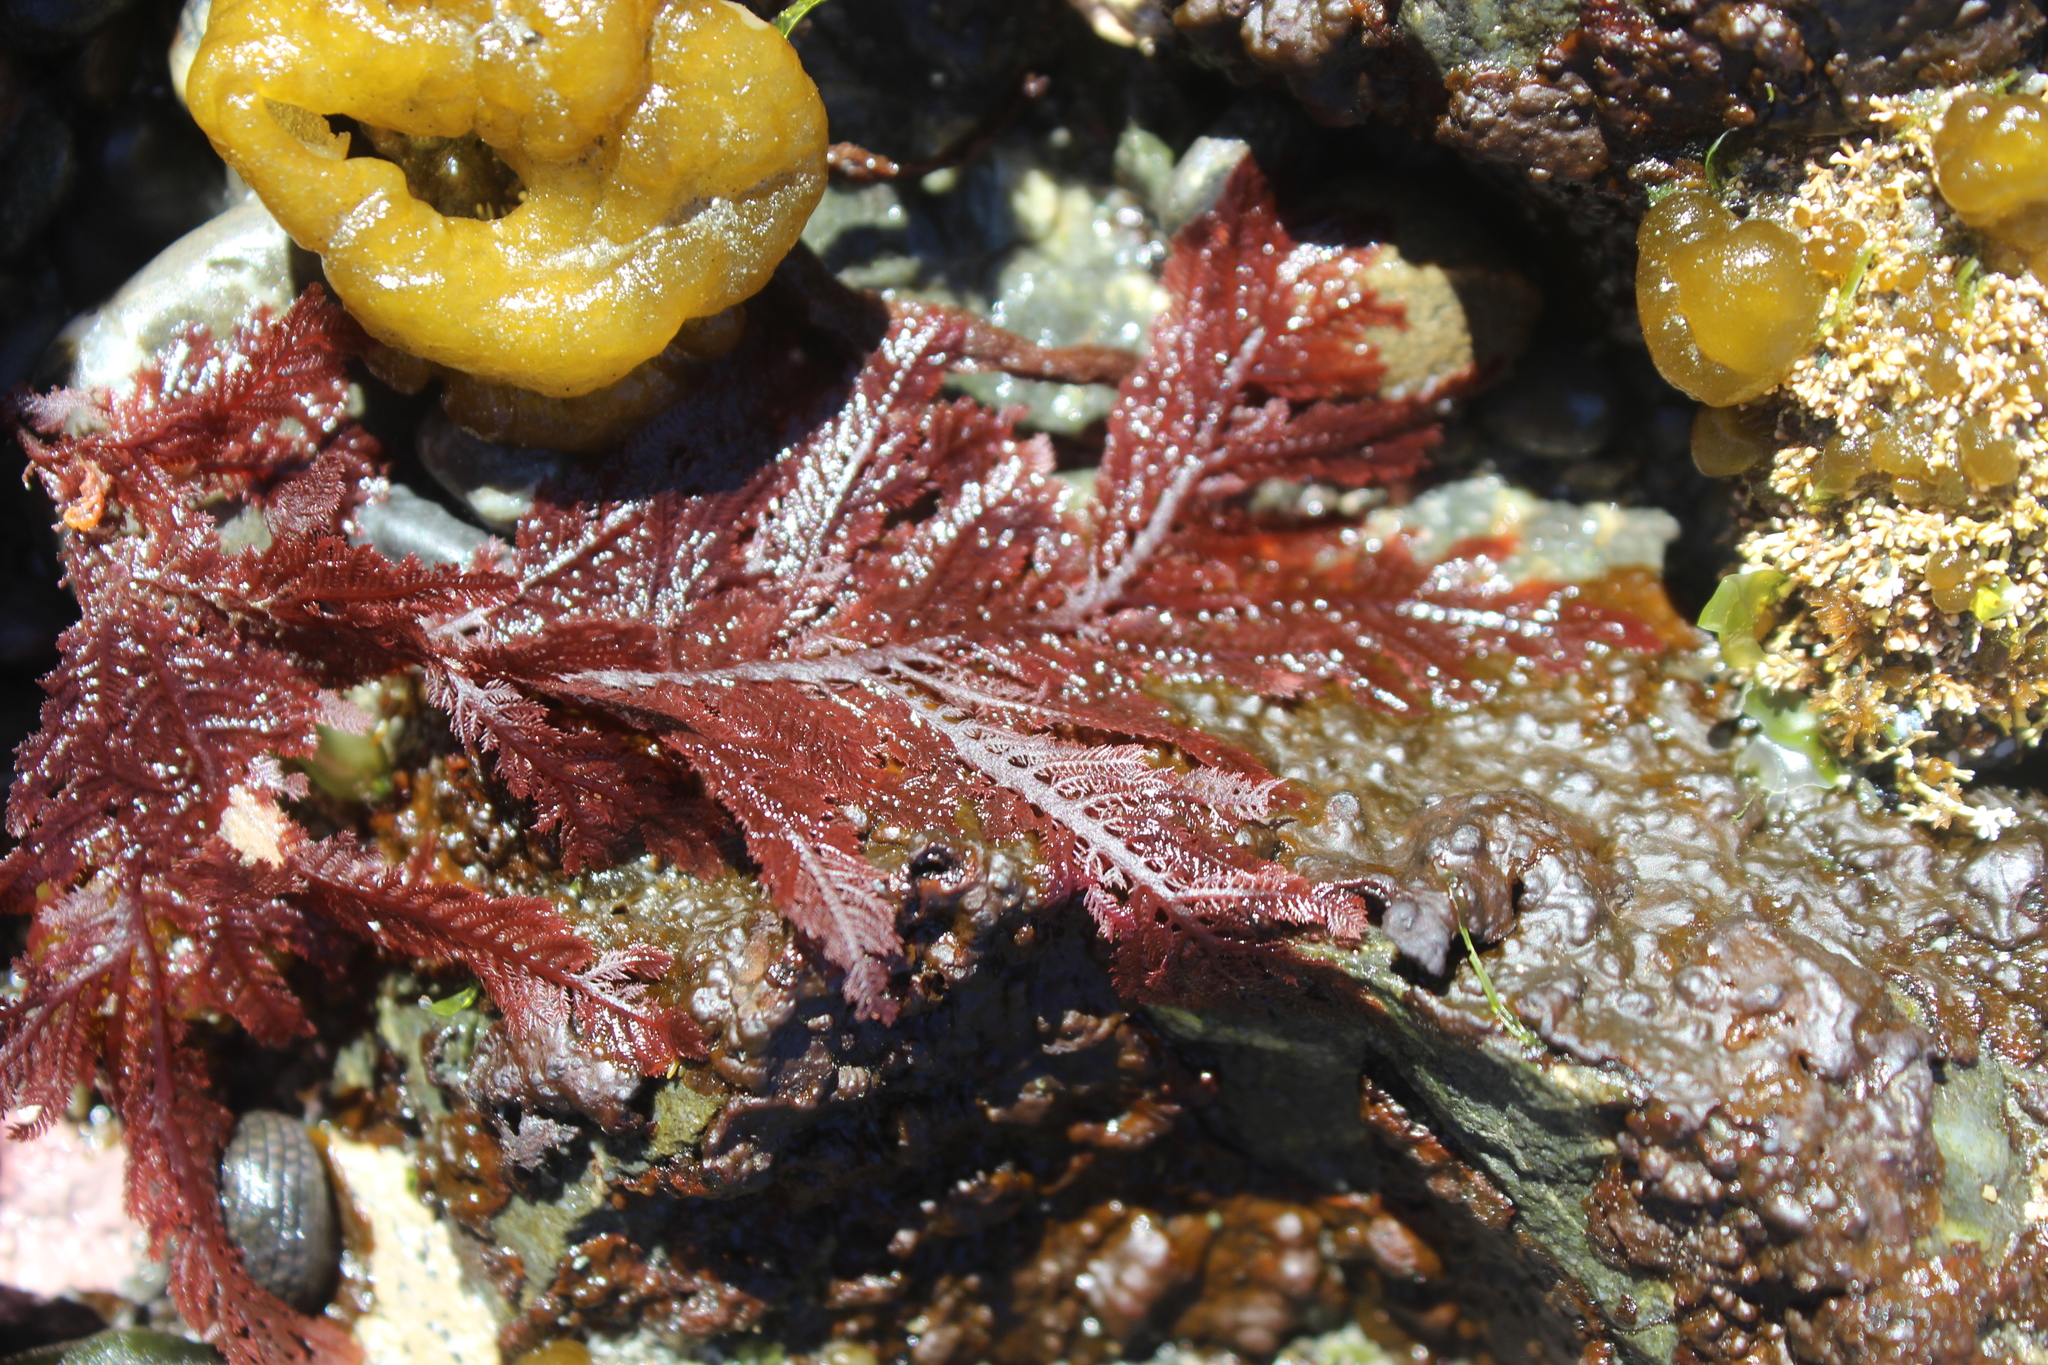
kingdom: Plantae
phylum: Rhodophyta
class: Florideophyceae
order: Ceramiales
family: Callithamniaceae
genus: Euptilota
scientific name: Euptilota formosissima
